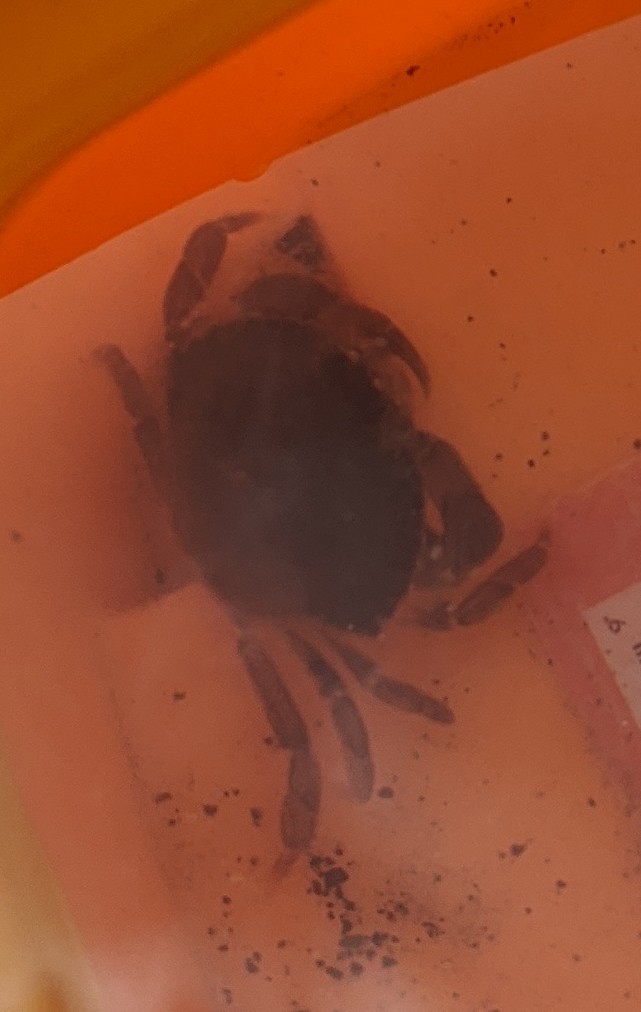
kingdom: Animalia
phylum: Arthropoda
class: Malacostraca
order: Decapoda
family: Cancridae
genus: Cancer
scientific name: Cancer irroratus
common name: Atlantic rock crab
